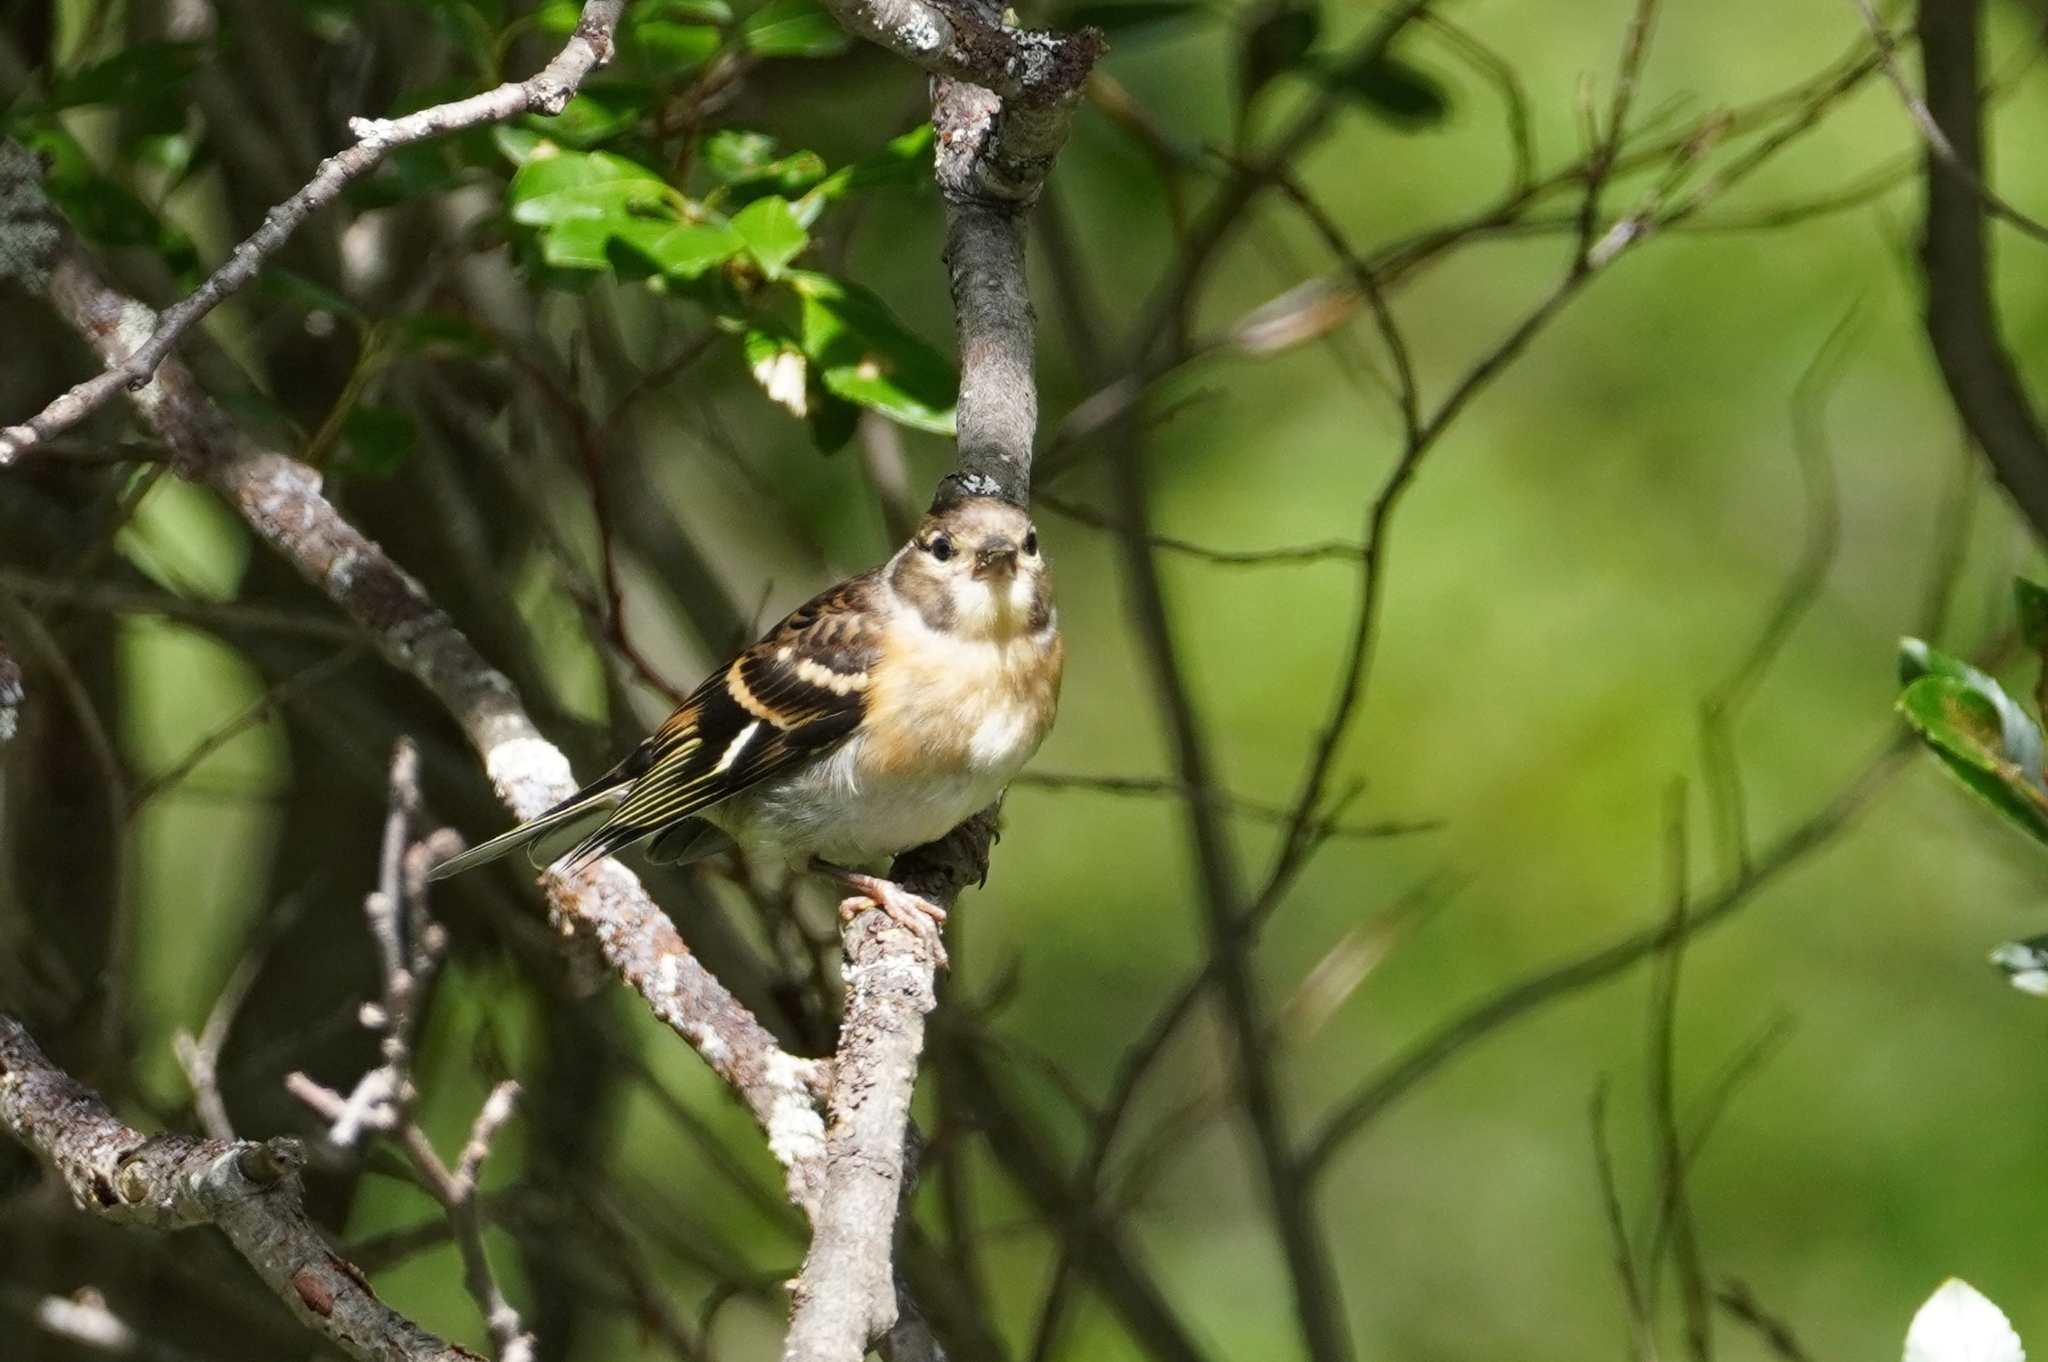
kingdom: Animalia
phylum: Chordata
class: Aves
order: Passeriformes
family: Fringillidae
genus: Fringilla
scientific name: Fringilla montifringilla
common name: Brambling
